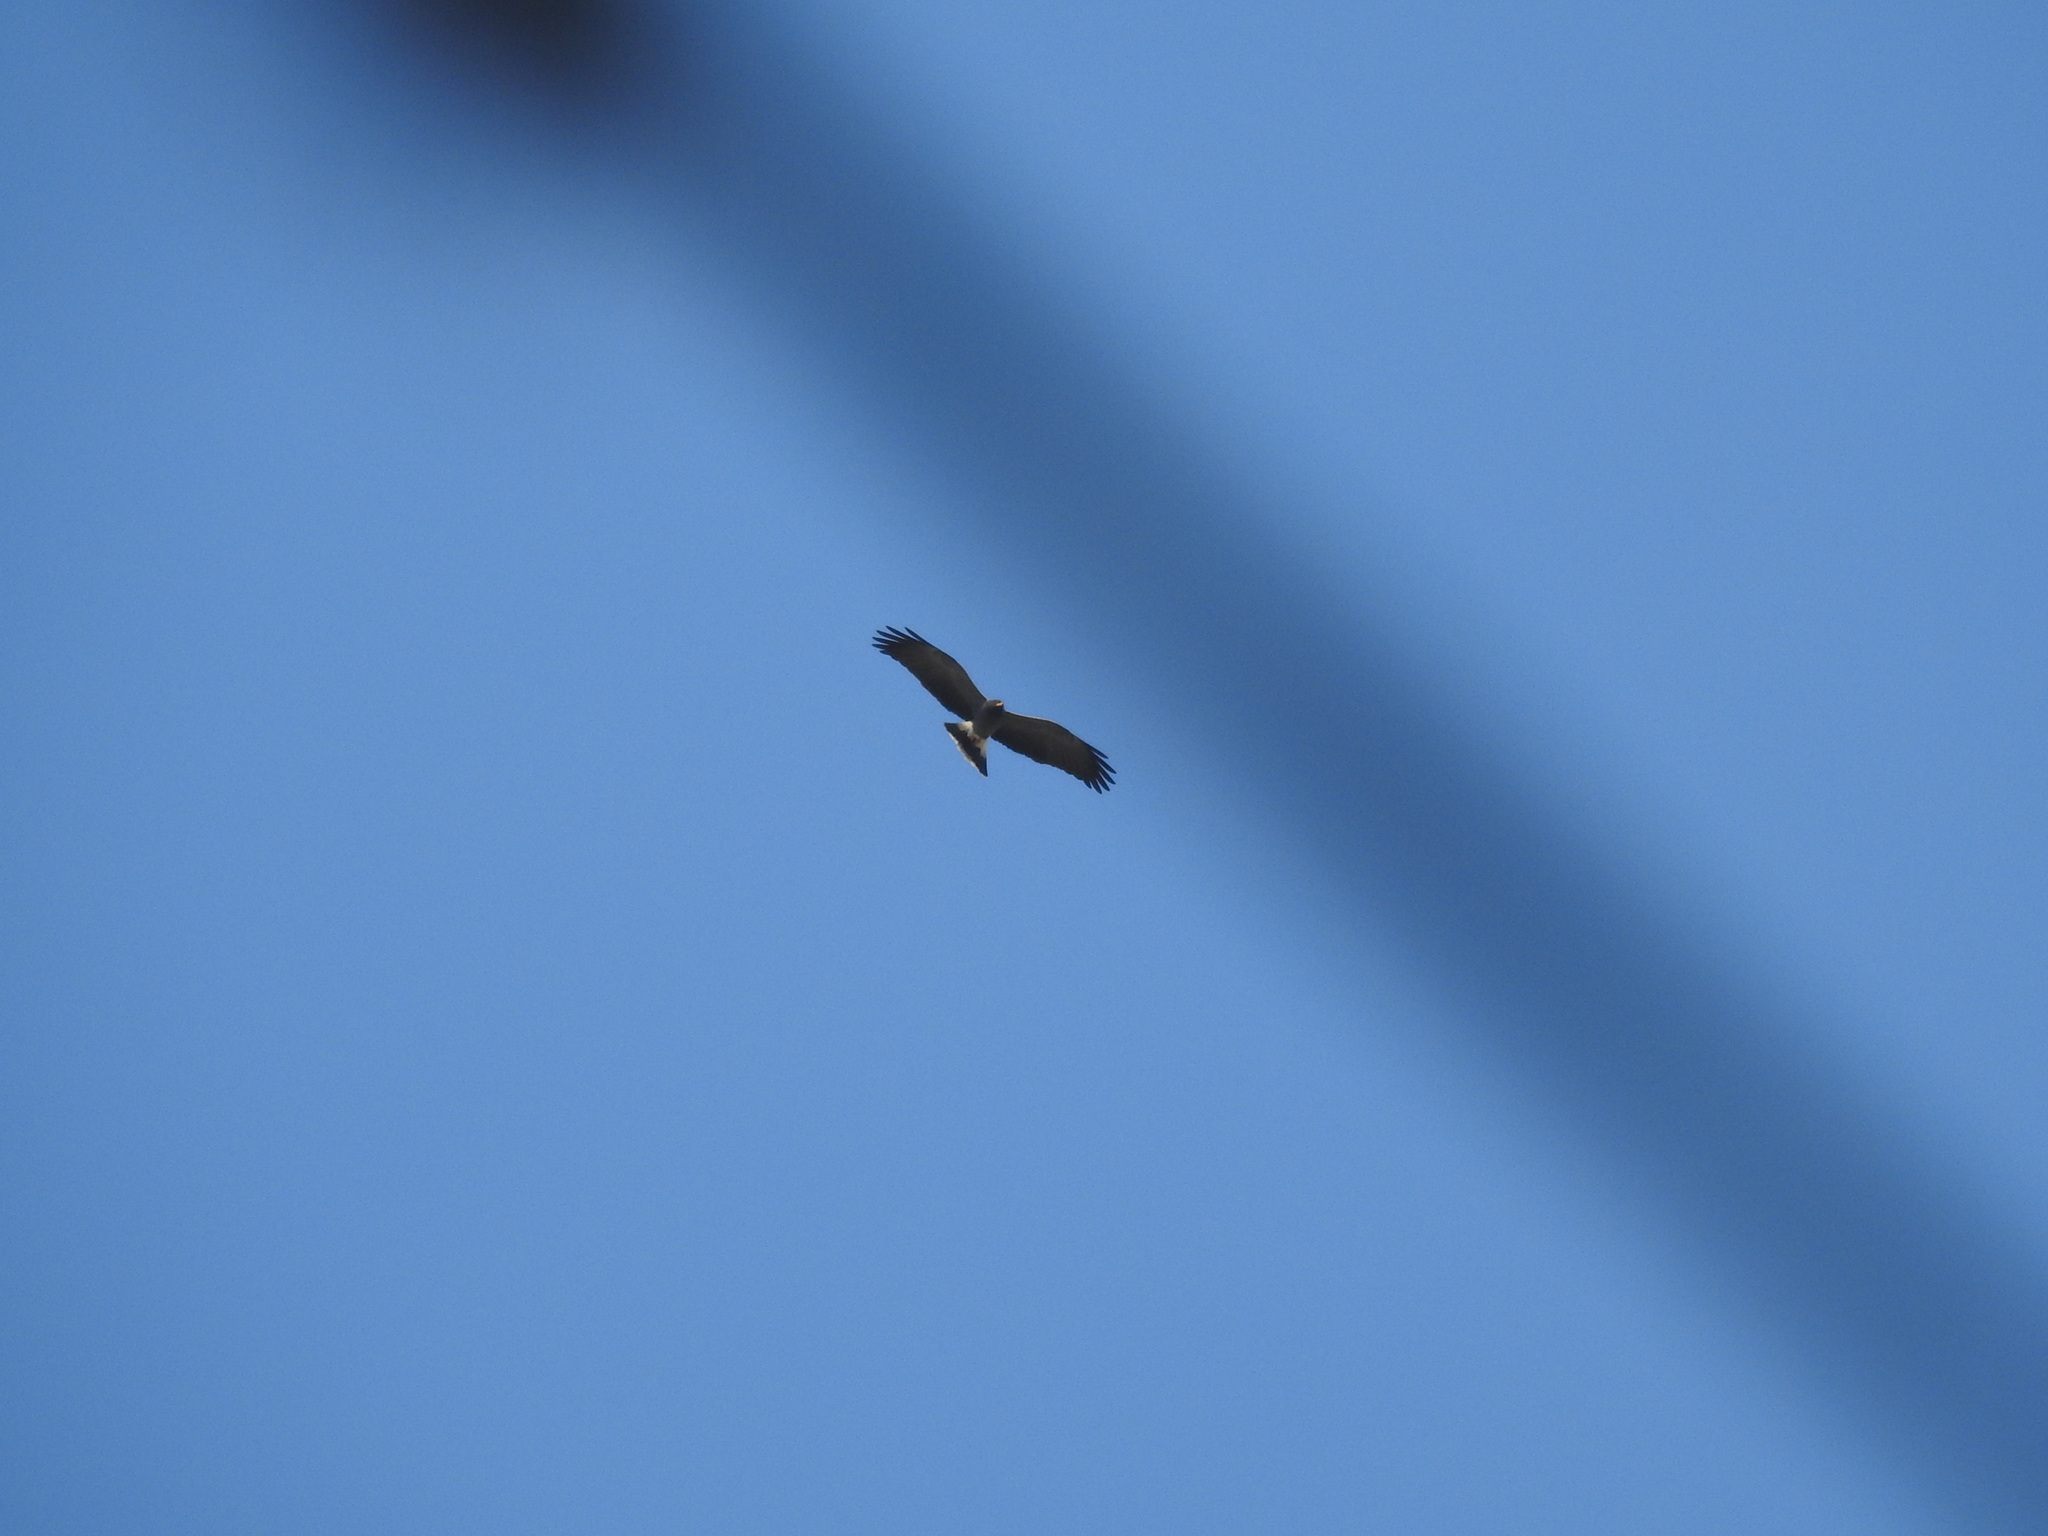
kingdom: Animalia
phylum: Chordata
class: Aves
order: Accipitriformes
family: Accipitridae
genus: Rostrhamus
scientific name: Rostrhamus sociabilis
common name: Snail kite
